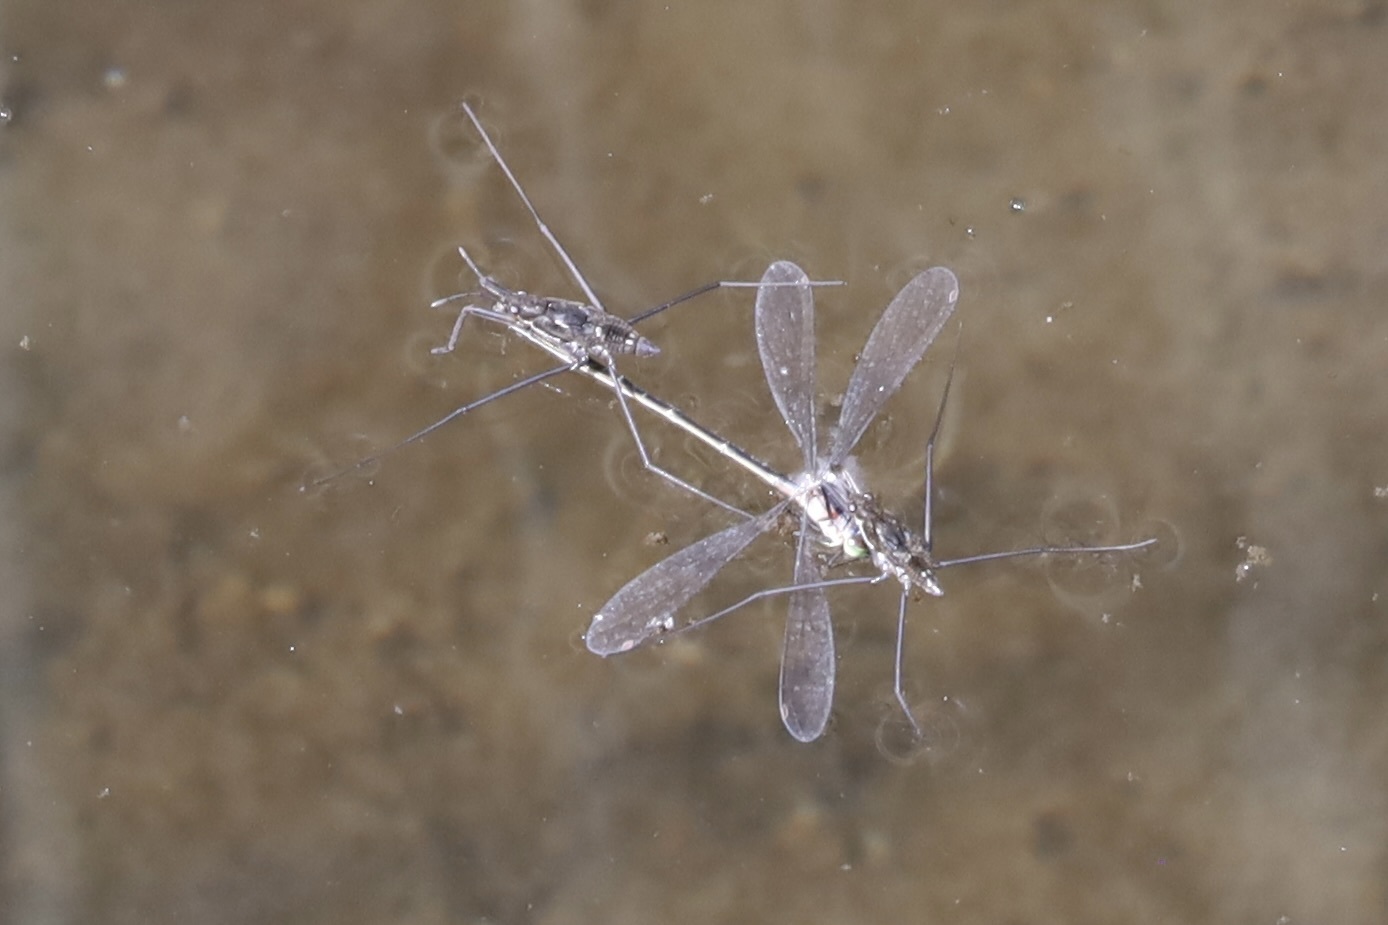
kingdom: Animalia
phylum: Arthropoda
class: Insecta
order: Hemiptera
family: Gerridae
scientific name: Gerridae
